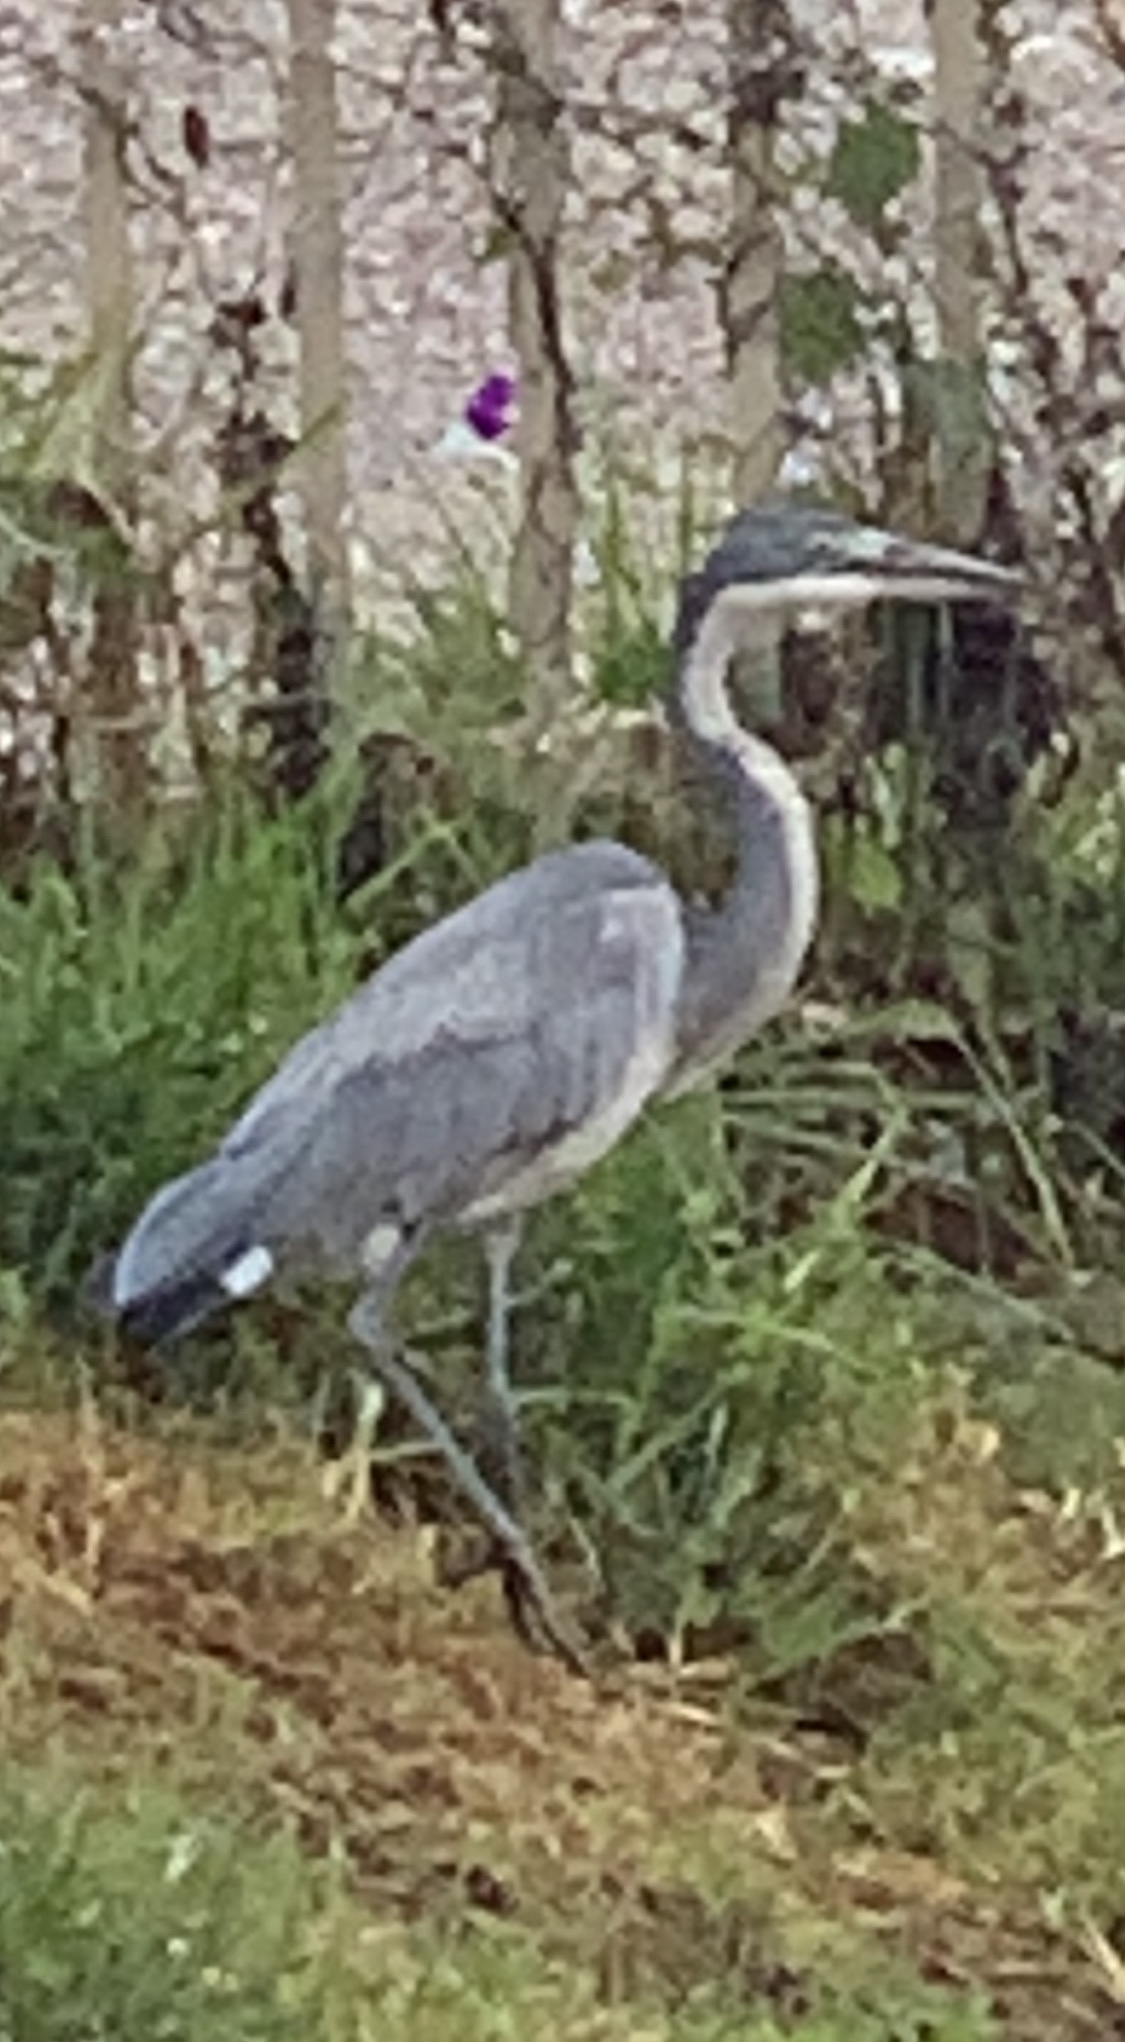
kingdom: Animalia
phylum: Chordata
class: Aves
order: Pelecaniformes
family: Ardeidae
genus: Ardea
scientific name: Ardea melanocephala
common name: Black-headed heron
